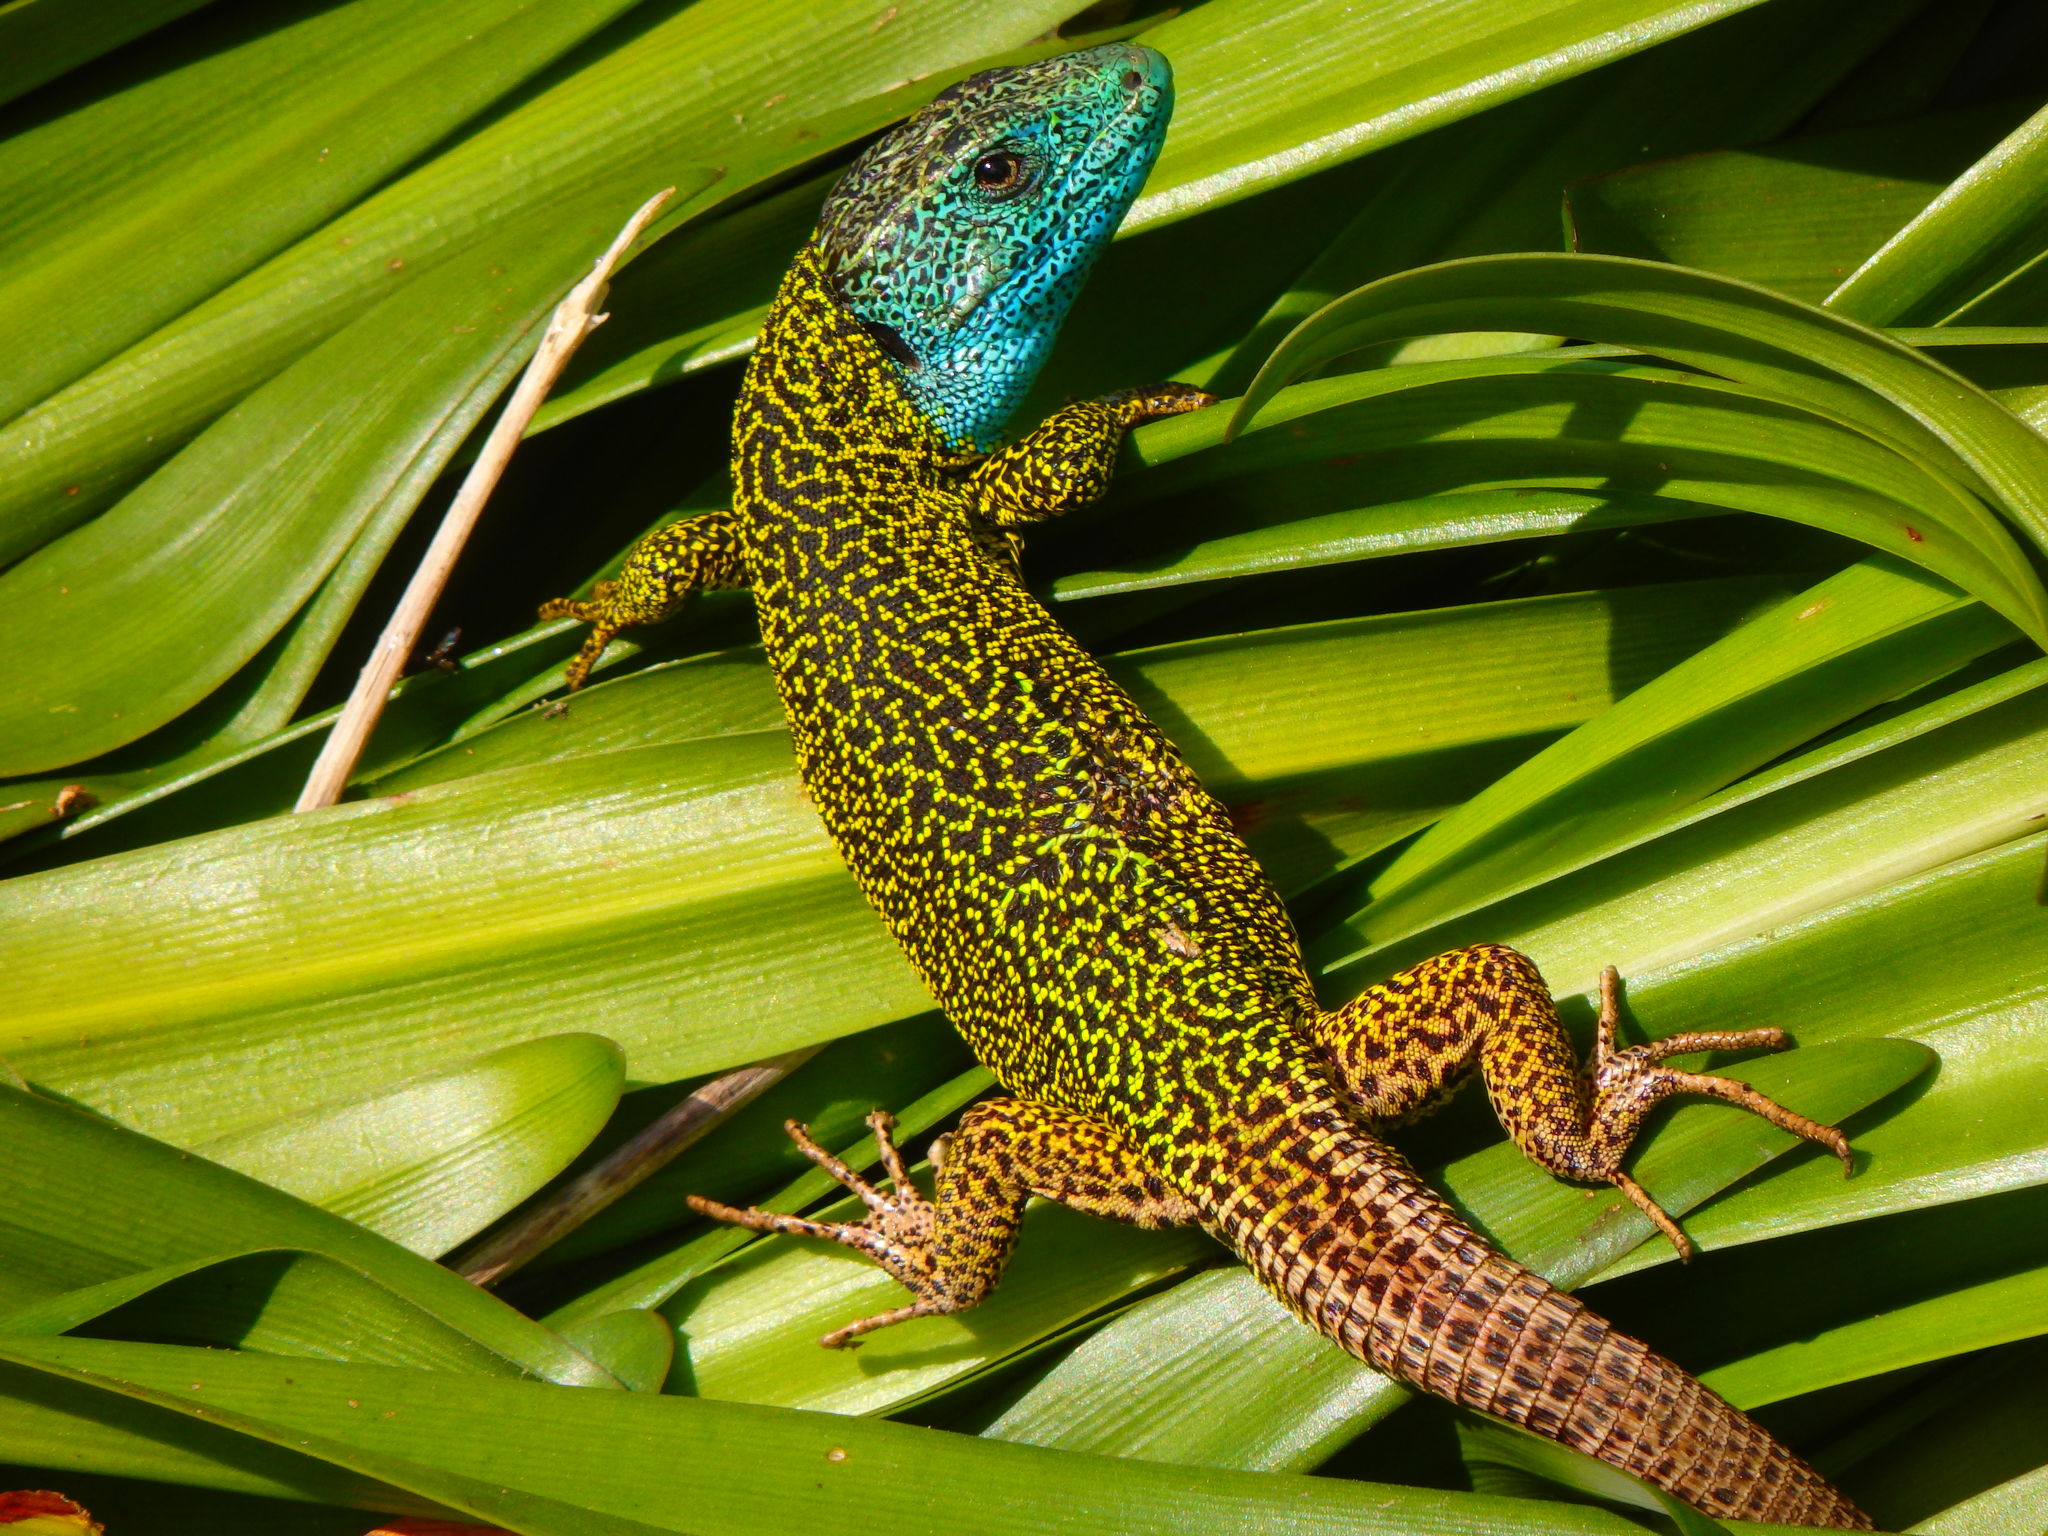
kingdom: Animalia
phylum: Chordata
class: Squamata
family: Lacertidae
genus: Lacerta
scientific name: Lacerta schreiberi
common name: Iberian emerald lizard
